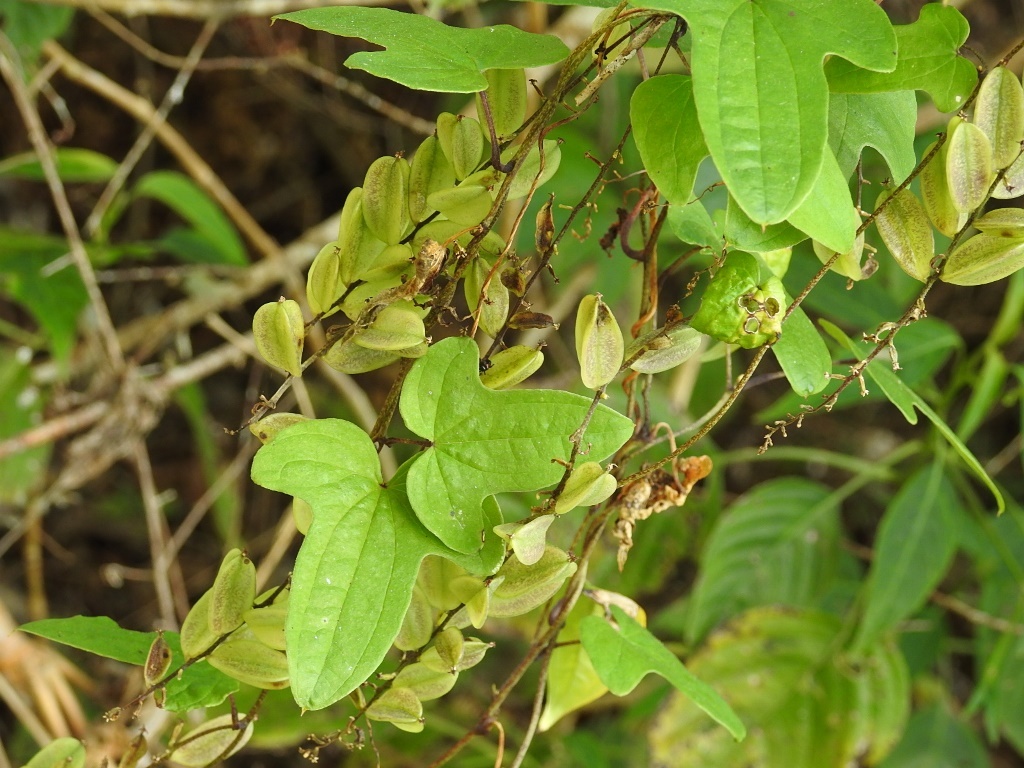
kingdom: Plantae
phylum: Tracheophyta
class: Liliopsida
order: Dioscoreales
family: Dioscoreaceae
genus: Dioscorea
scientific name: Dioscorea howardiana
